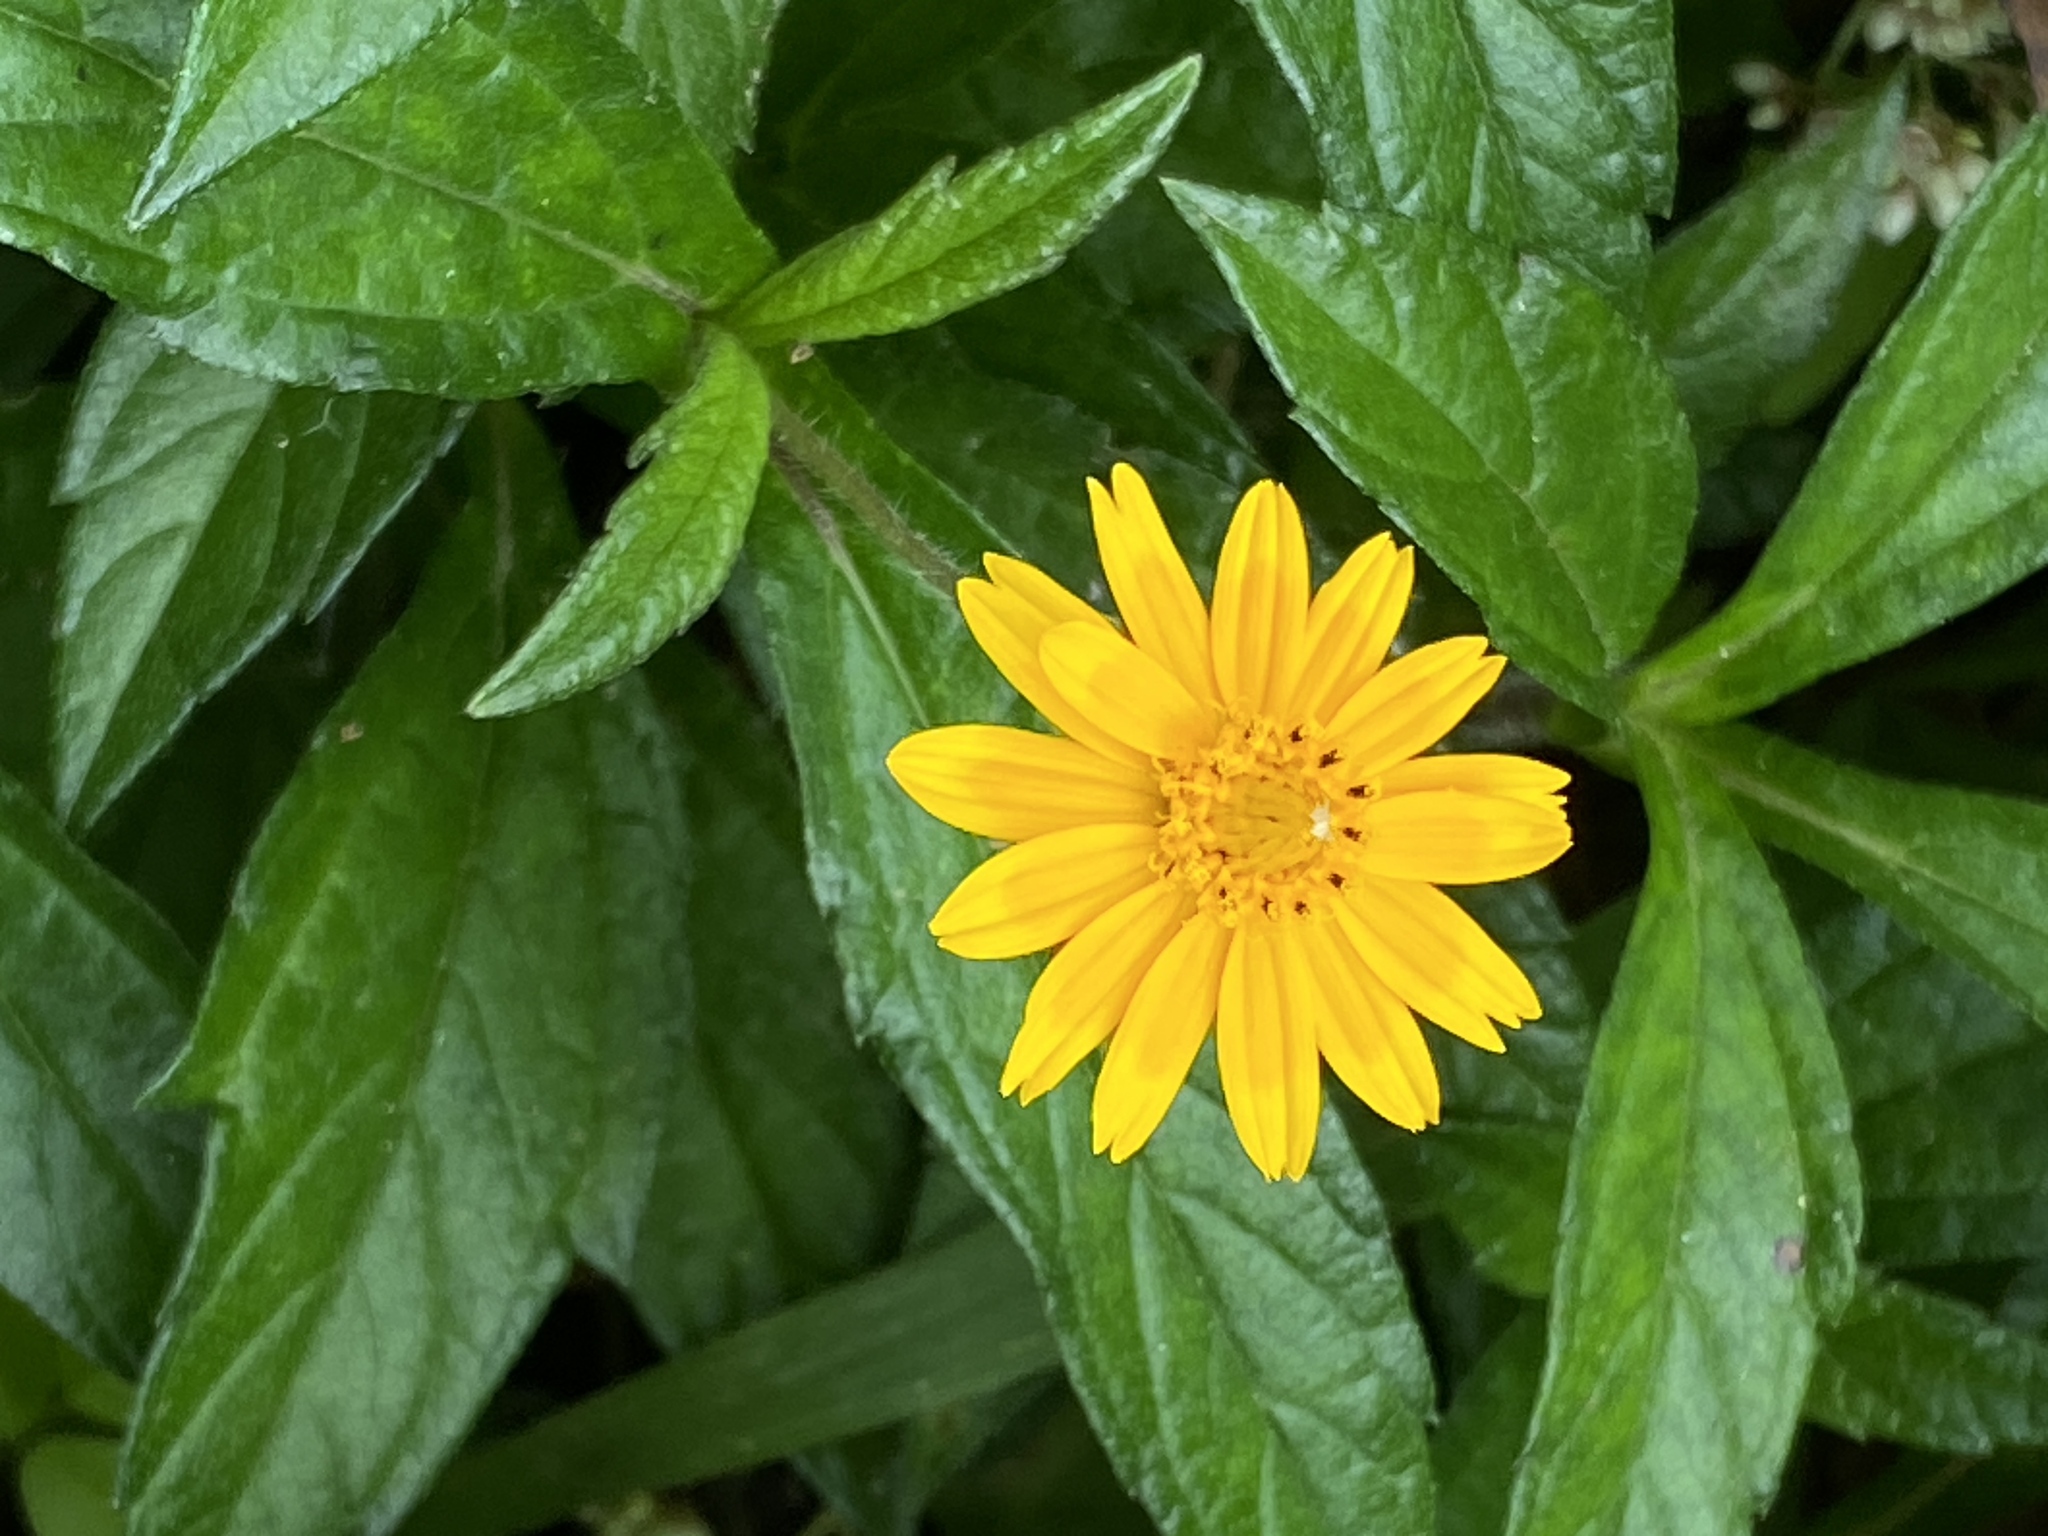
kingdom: Plantae
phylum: Tracheophyta
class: Magnoliopsida
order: Asterales
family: Asteraceae
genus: Sphagneticola
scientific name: Sphagneticola trilobata
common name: Bay biscayne creeping-oxeye
